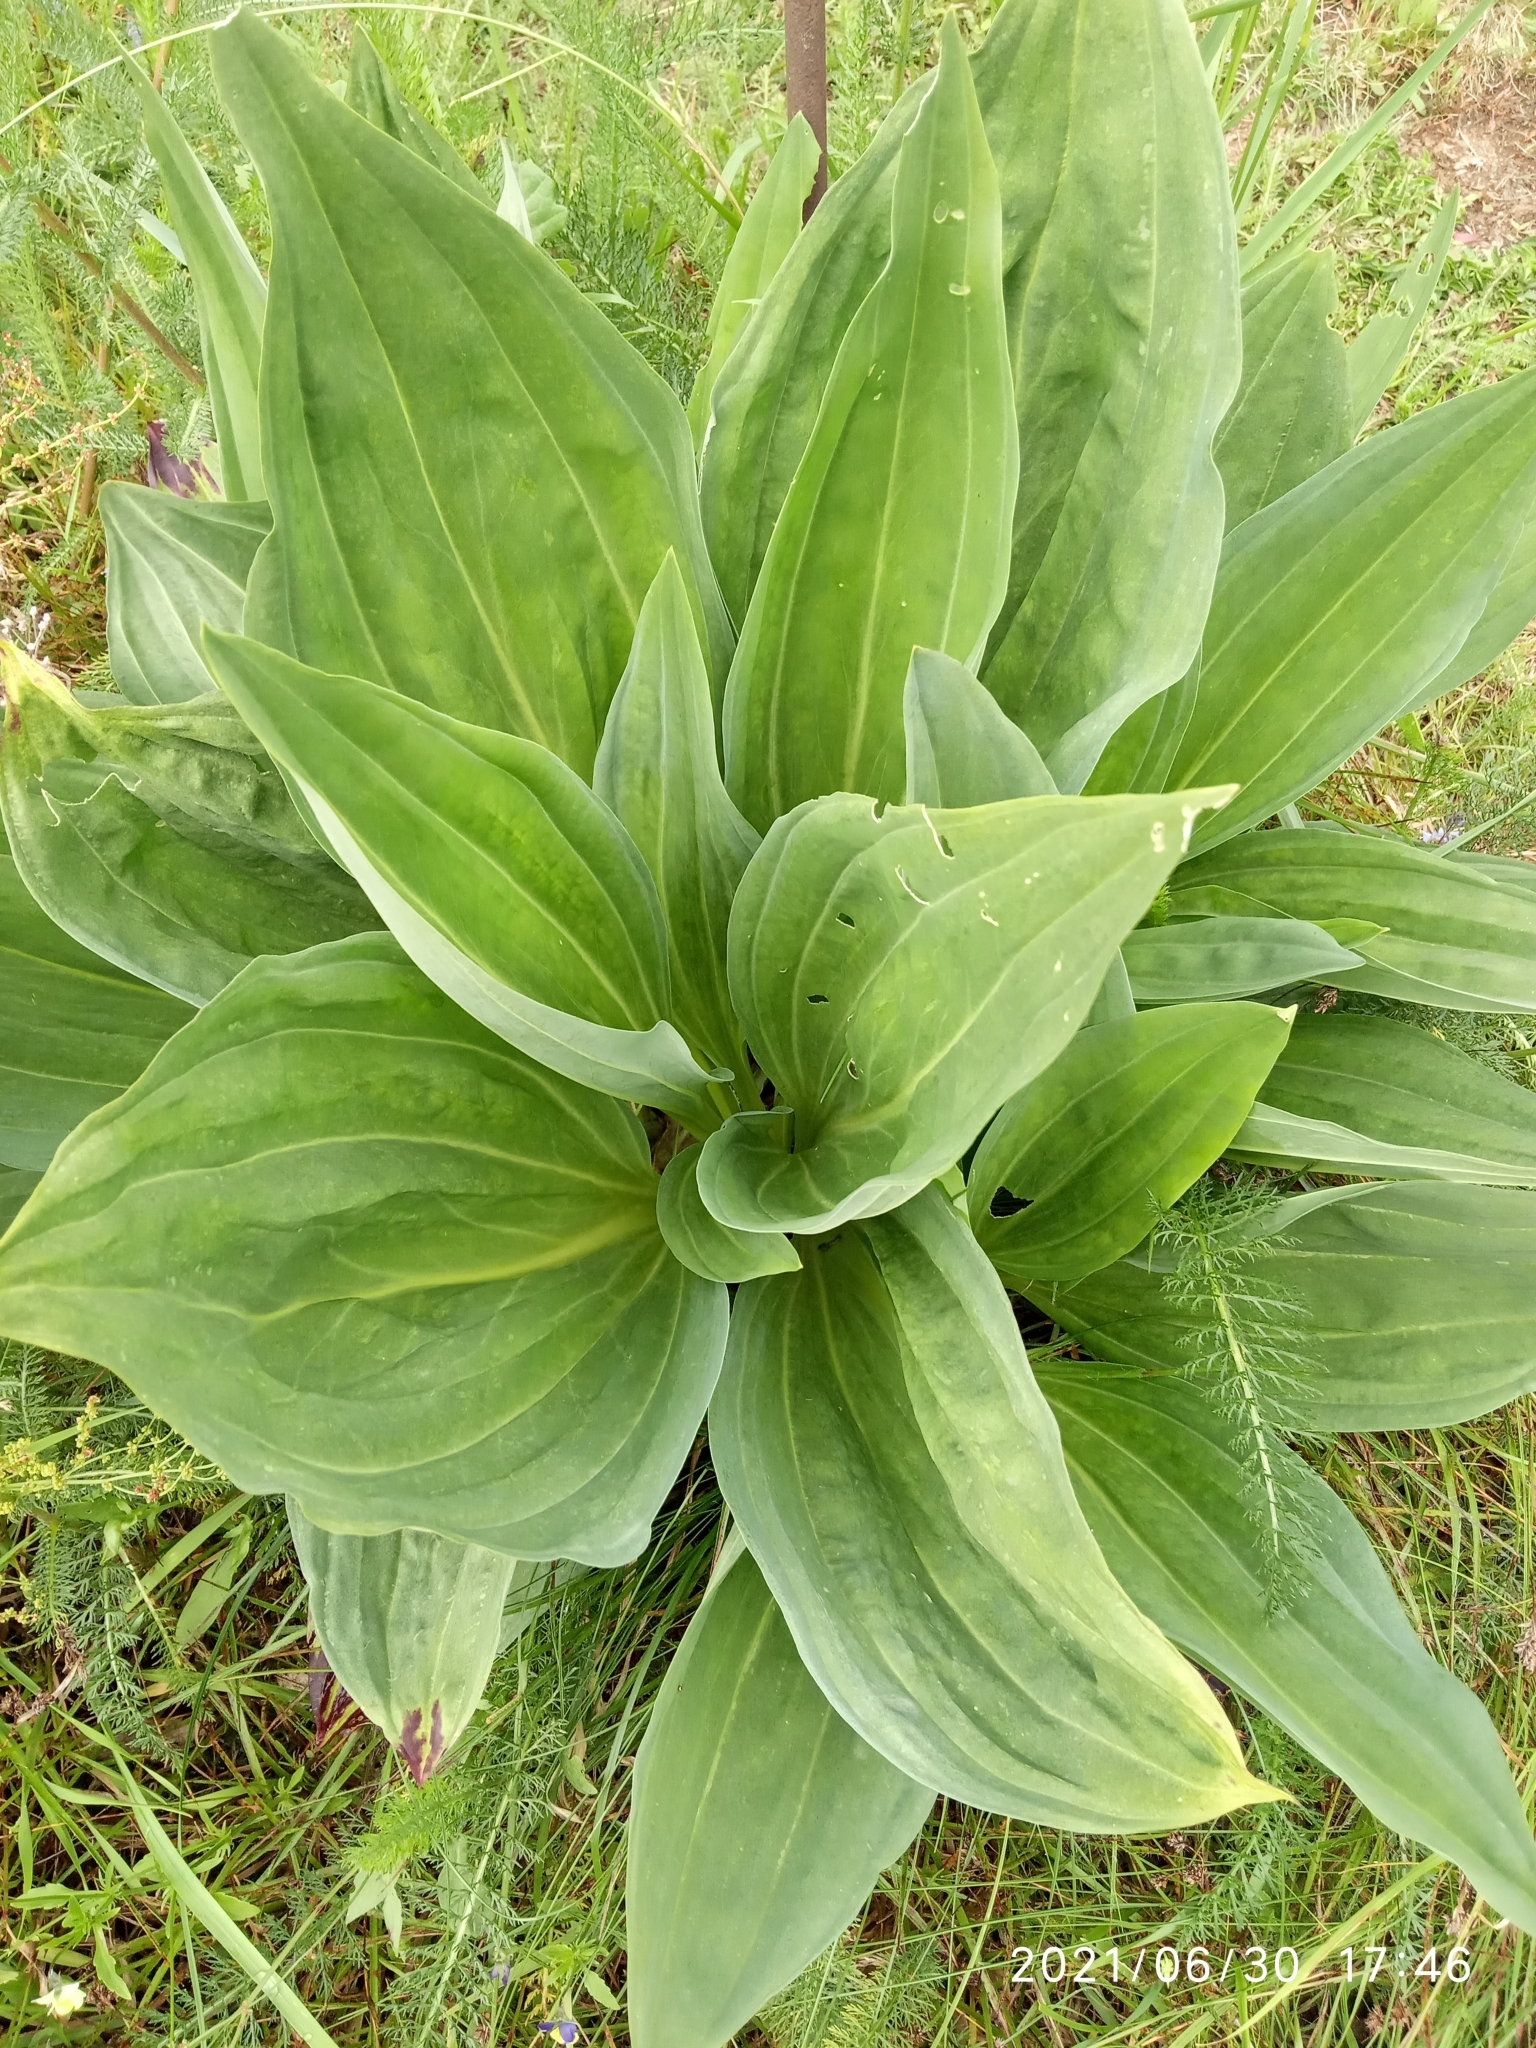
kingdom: Plantae
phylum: Tracheophyta
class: Magnoliopsida
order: Gentianales
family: Gentianaceae
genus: Gentiana
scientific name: Gentiana lutea
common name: Great yellow gentian
